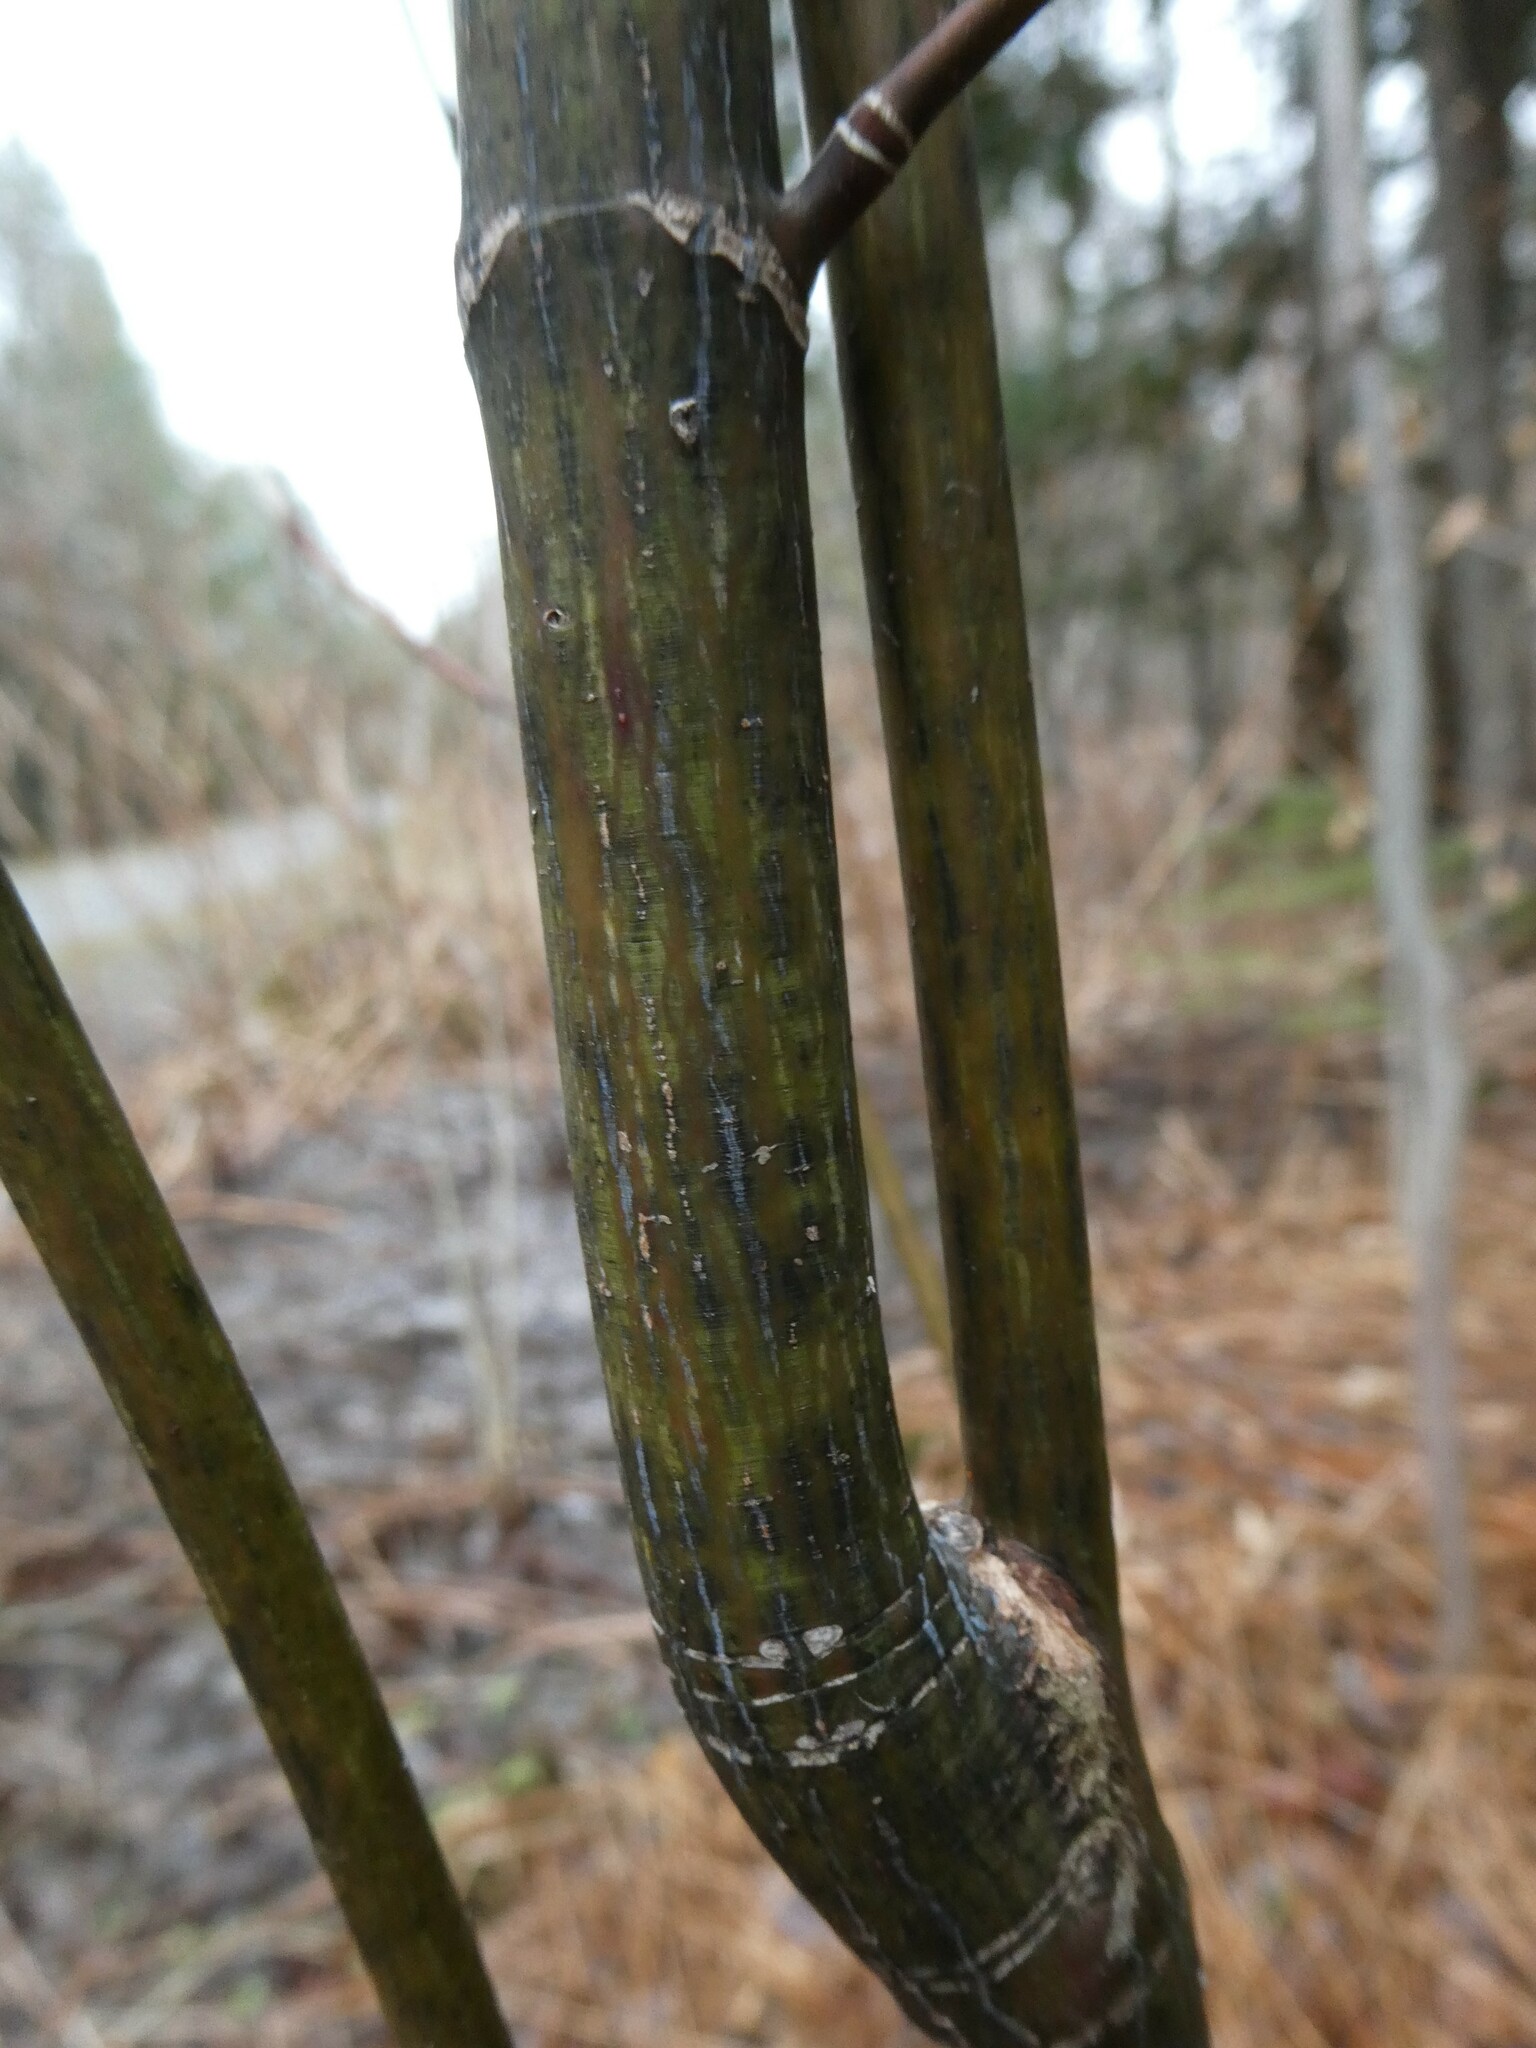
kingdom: Plantae
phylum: Tracheophyta
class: Magnoliopsida
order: Sapindales
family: Sapindaceae
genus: Acer
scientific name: Acer pensylvanicum
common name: Moosewood
